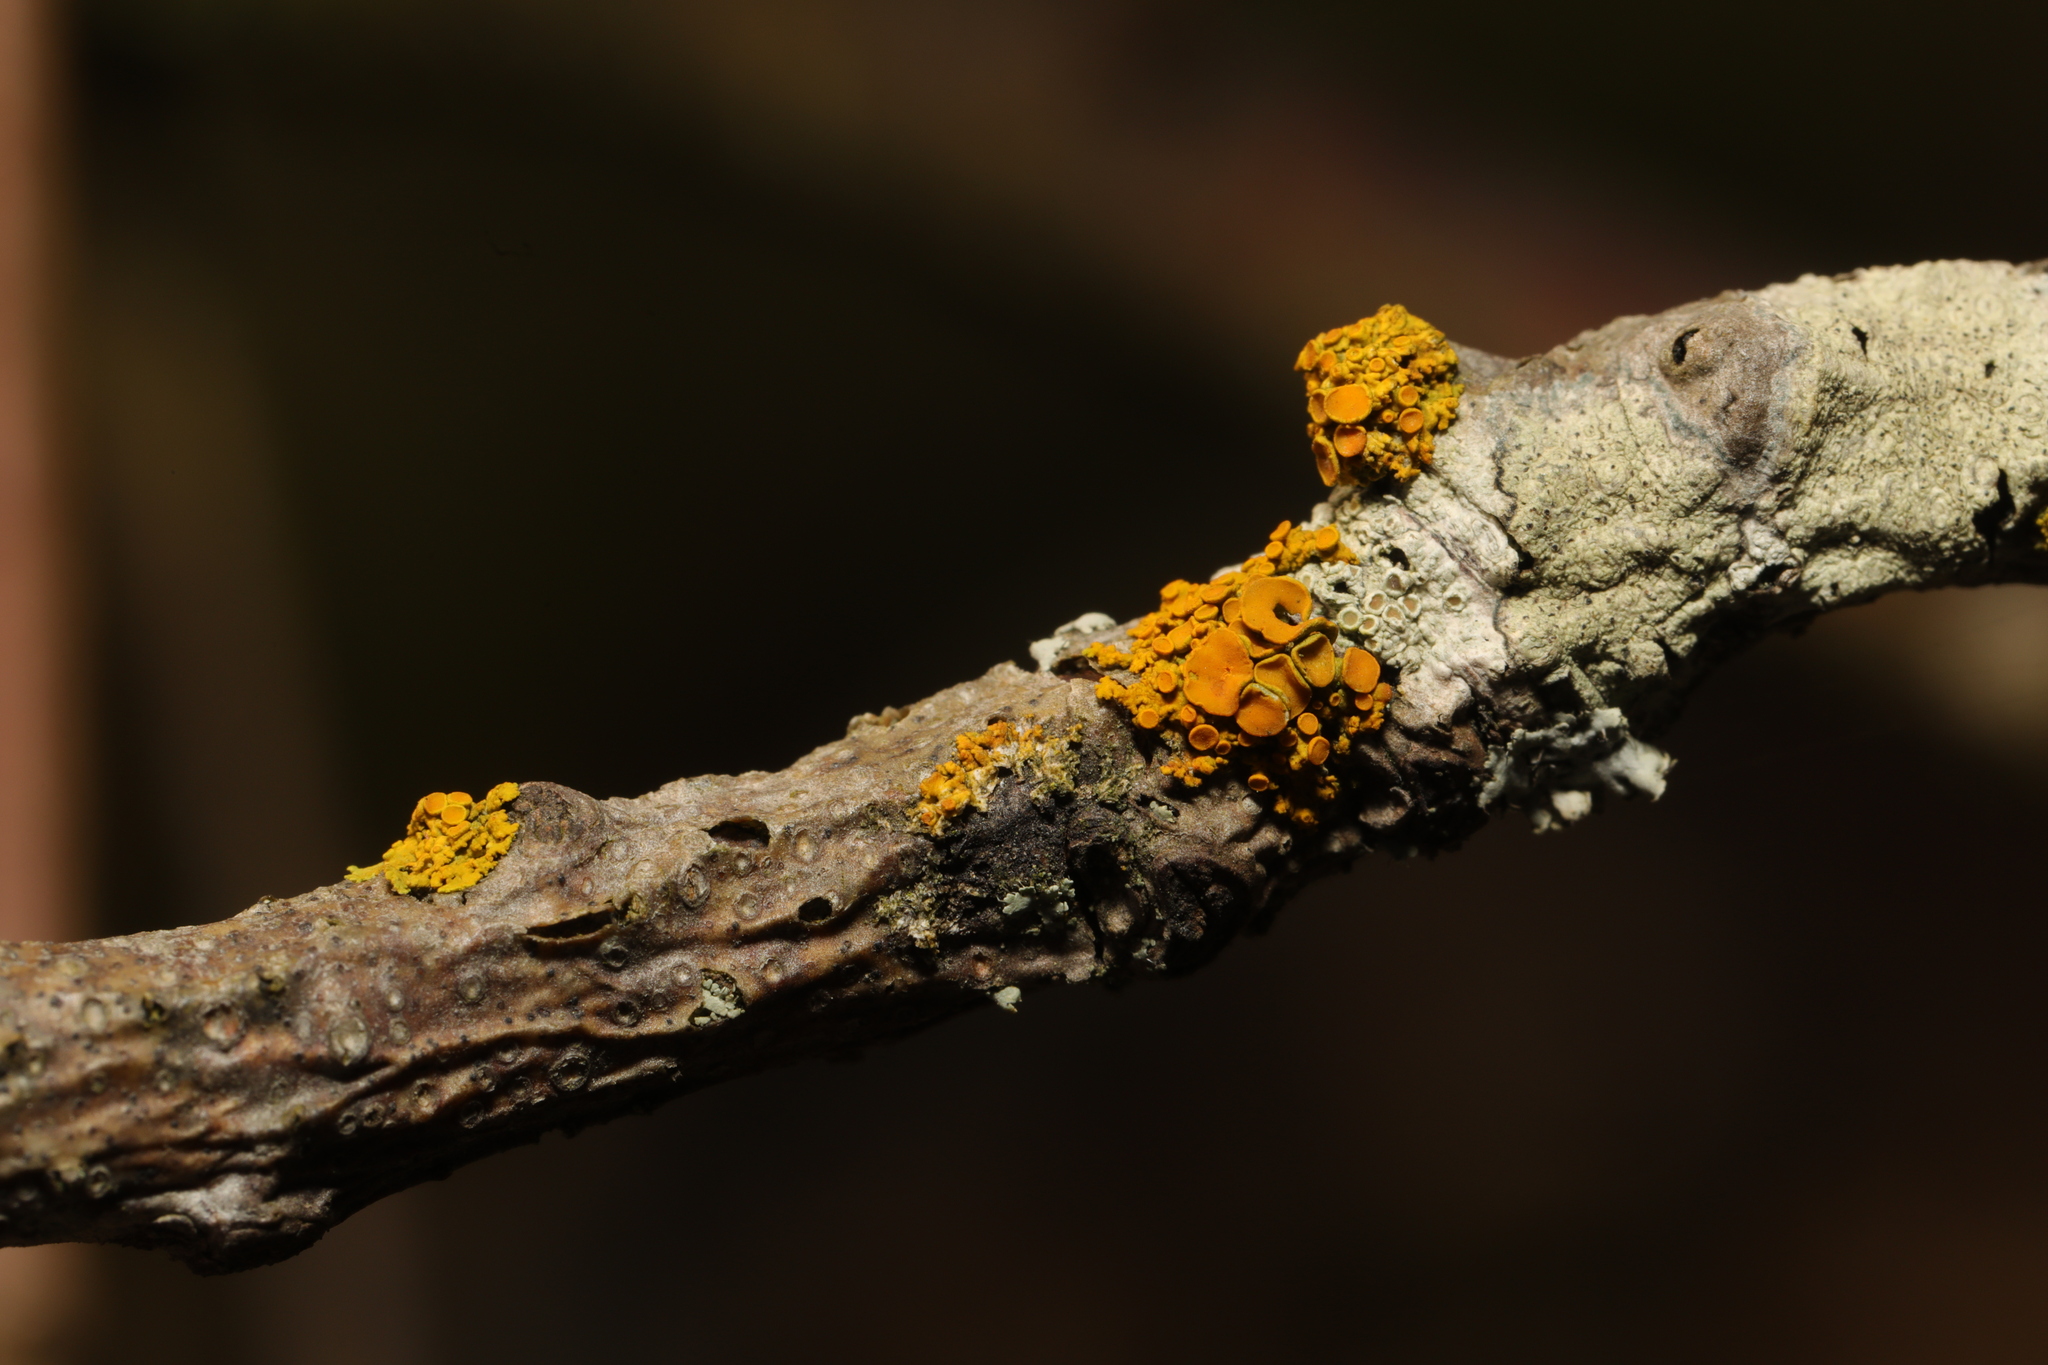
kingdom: Fungi
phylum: Ascomycota
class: Lecanoromycetes
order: Teloschistales
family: Teloschistaceae
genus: Polycauliona
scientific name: Polycauliona polycarpa
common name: Pin-cushion sunburst lichen
